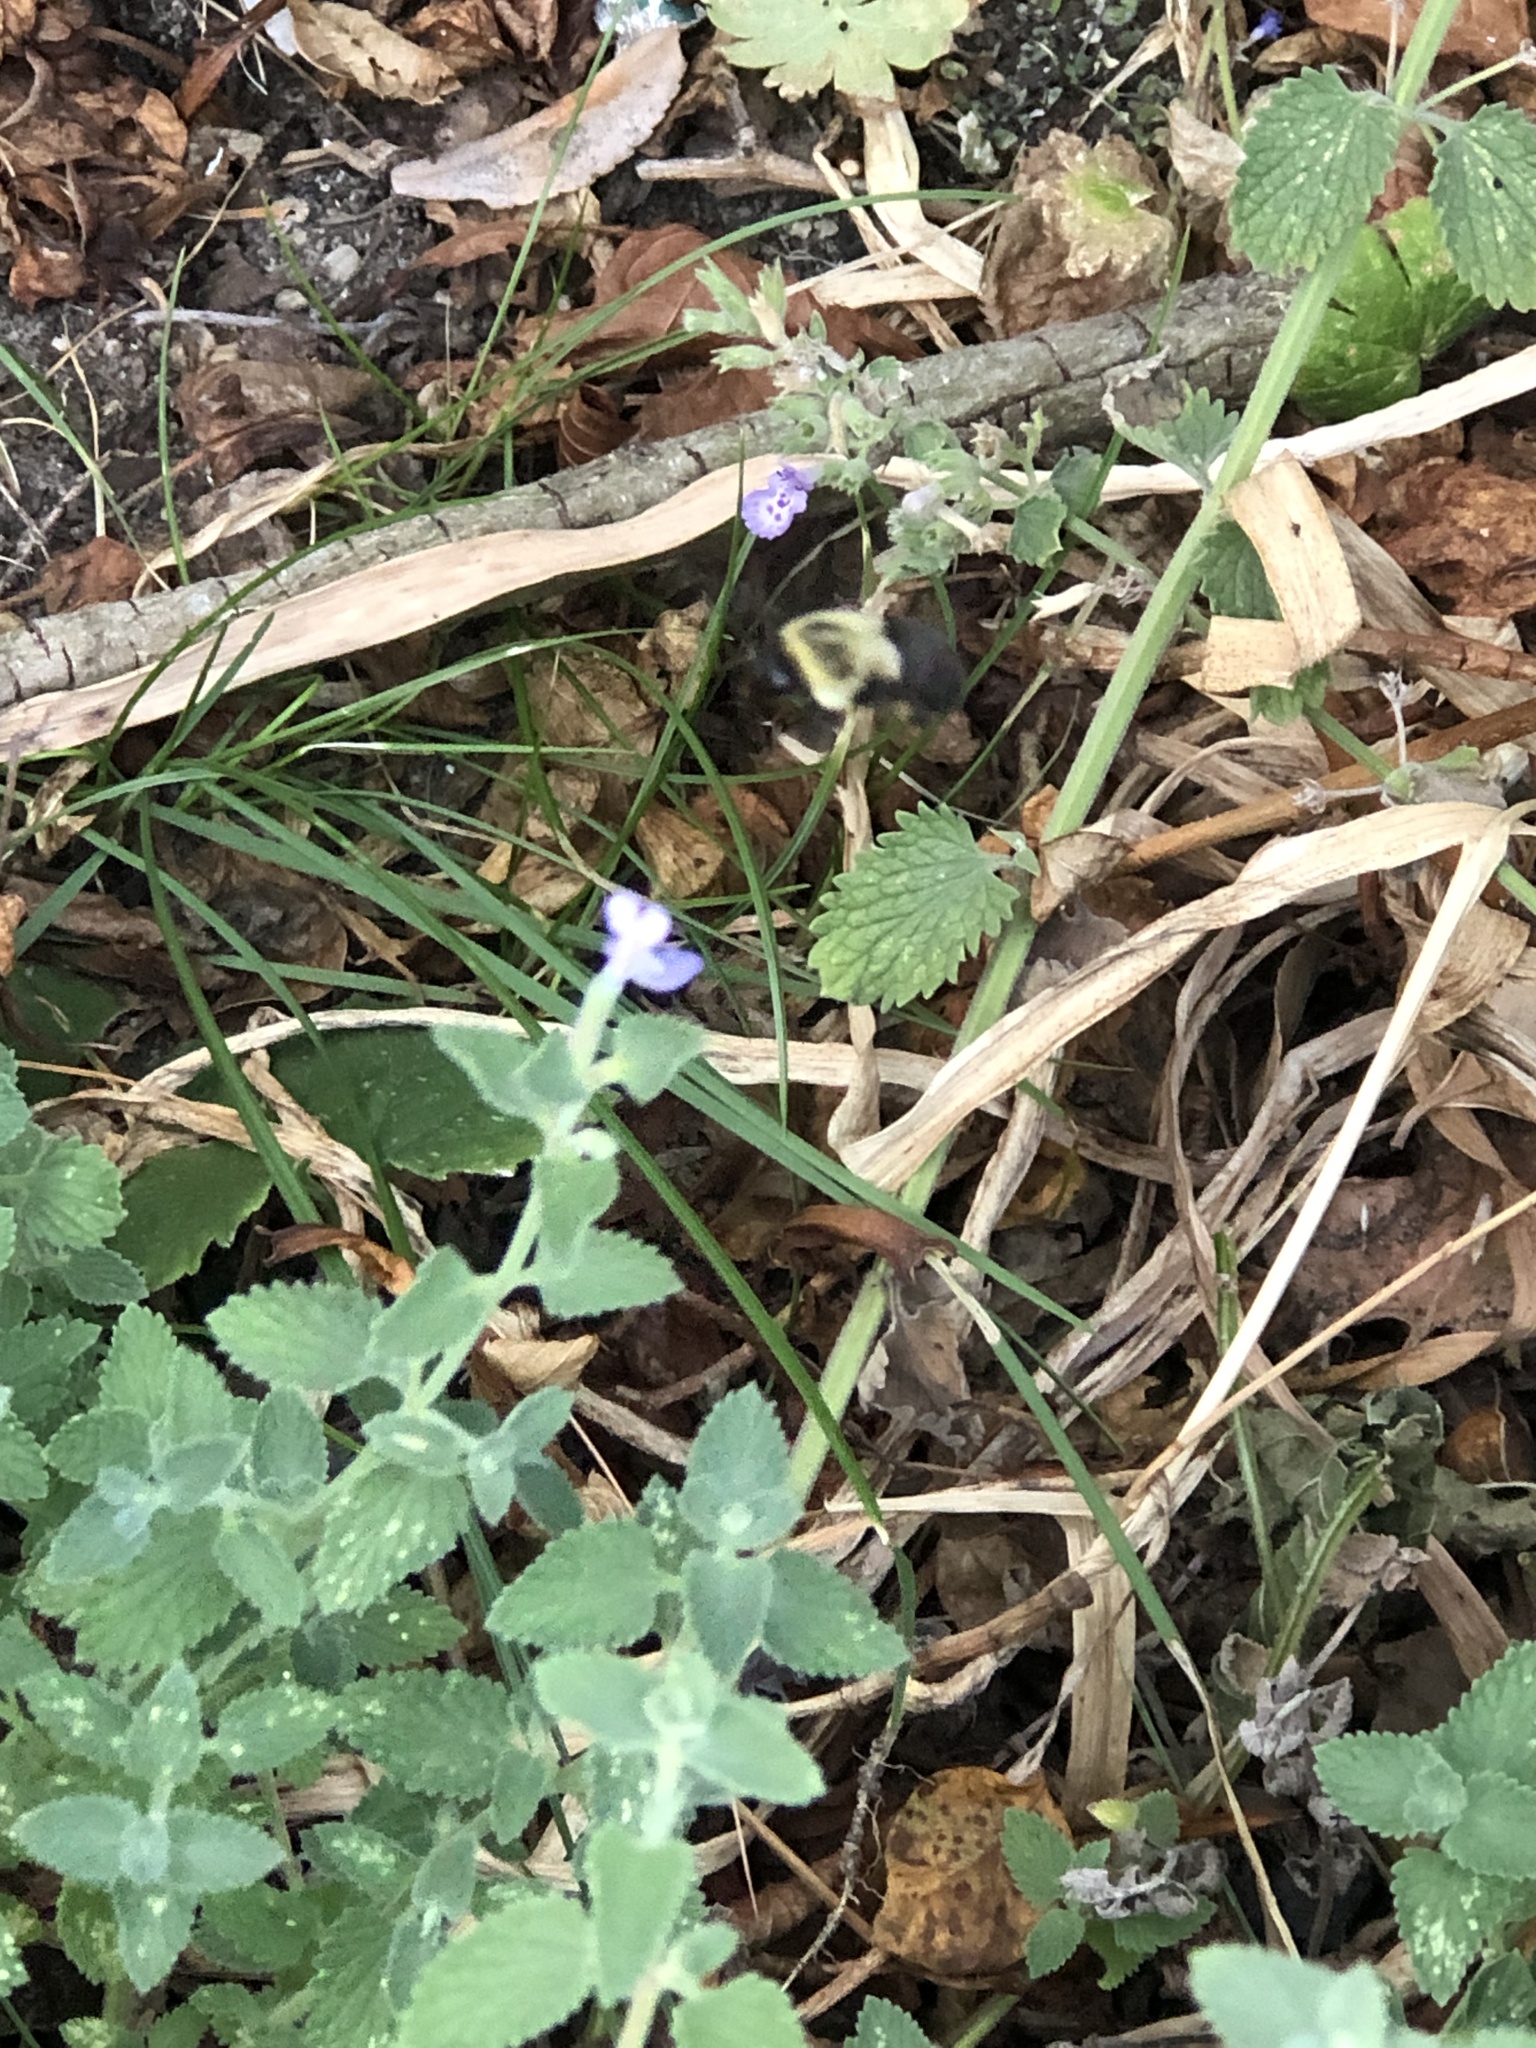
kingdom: Animalia
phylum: Arthropoda
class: Insecta
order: Hymenoptera
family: Apidae
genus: Bombus
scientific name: Bombus impatiens
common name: Common eastern bumble bee
